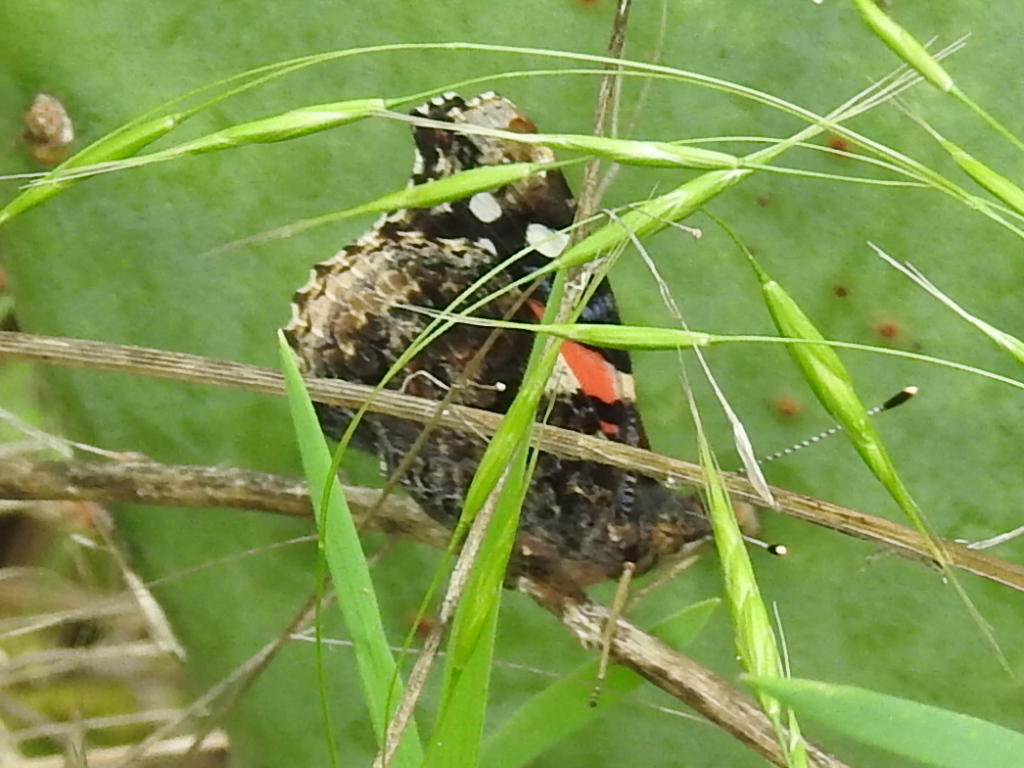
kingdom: Animalia
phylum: Arthropoda
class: Insecta
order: Lepidoptera
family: Nymphalidae
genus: Vanessa
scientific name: Vanessa atalanta
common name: Red admiral
